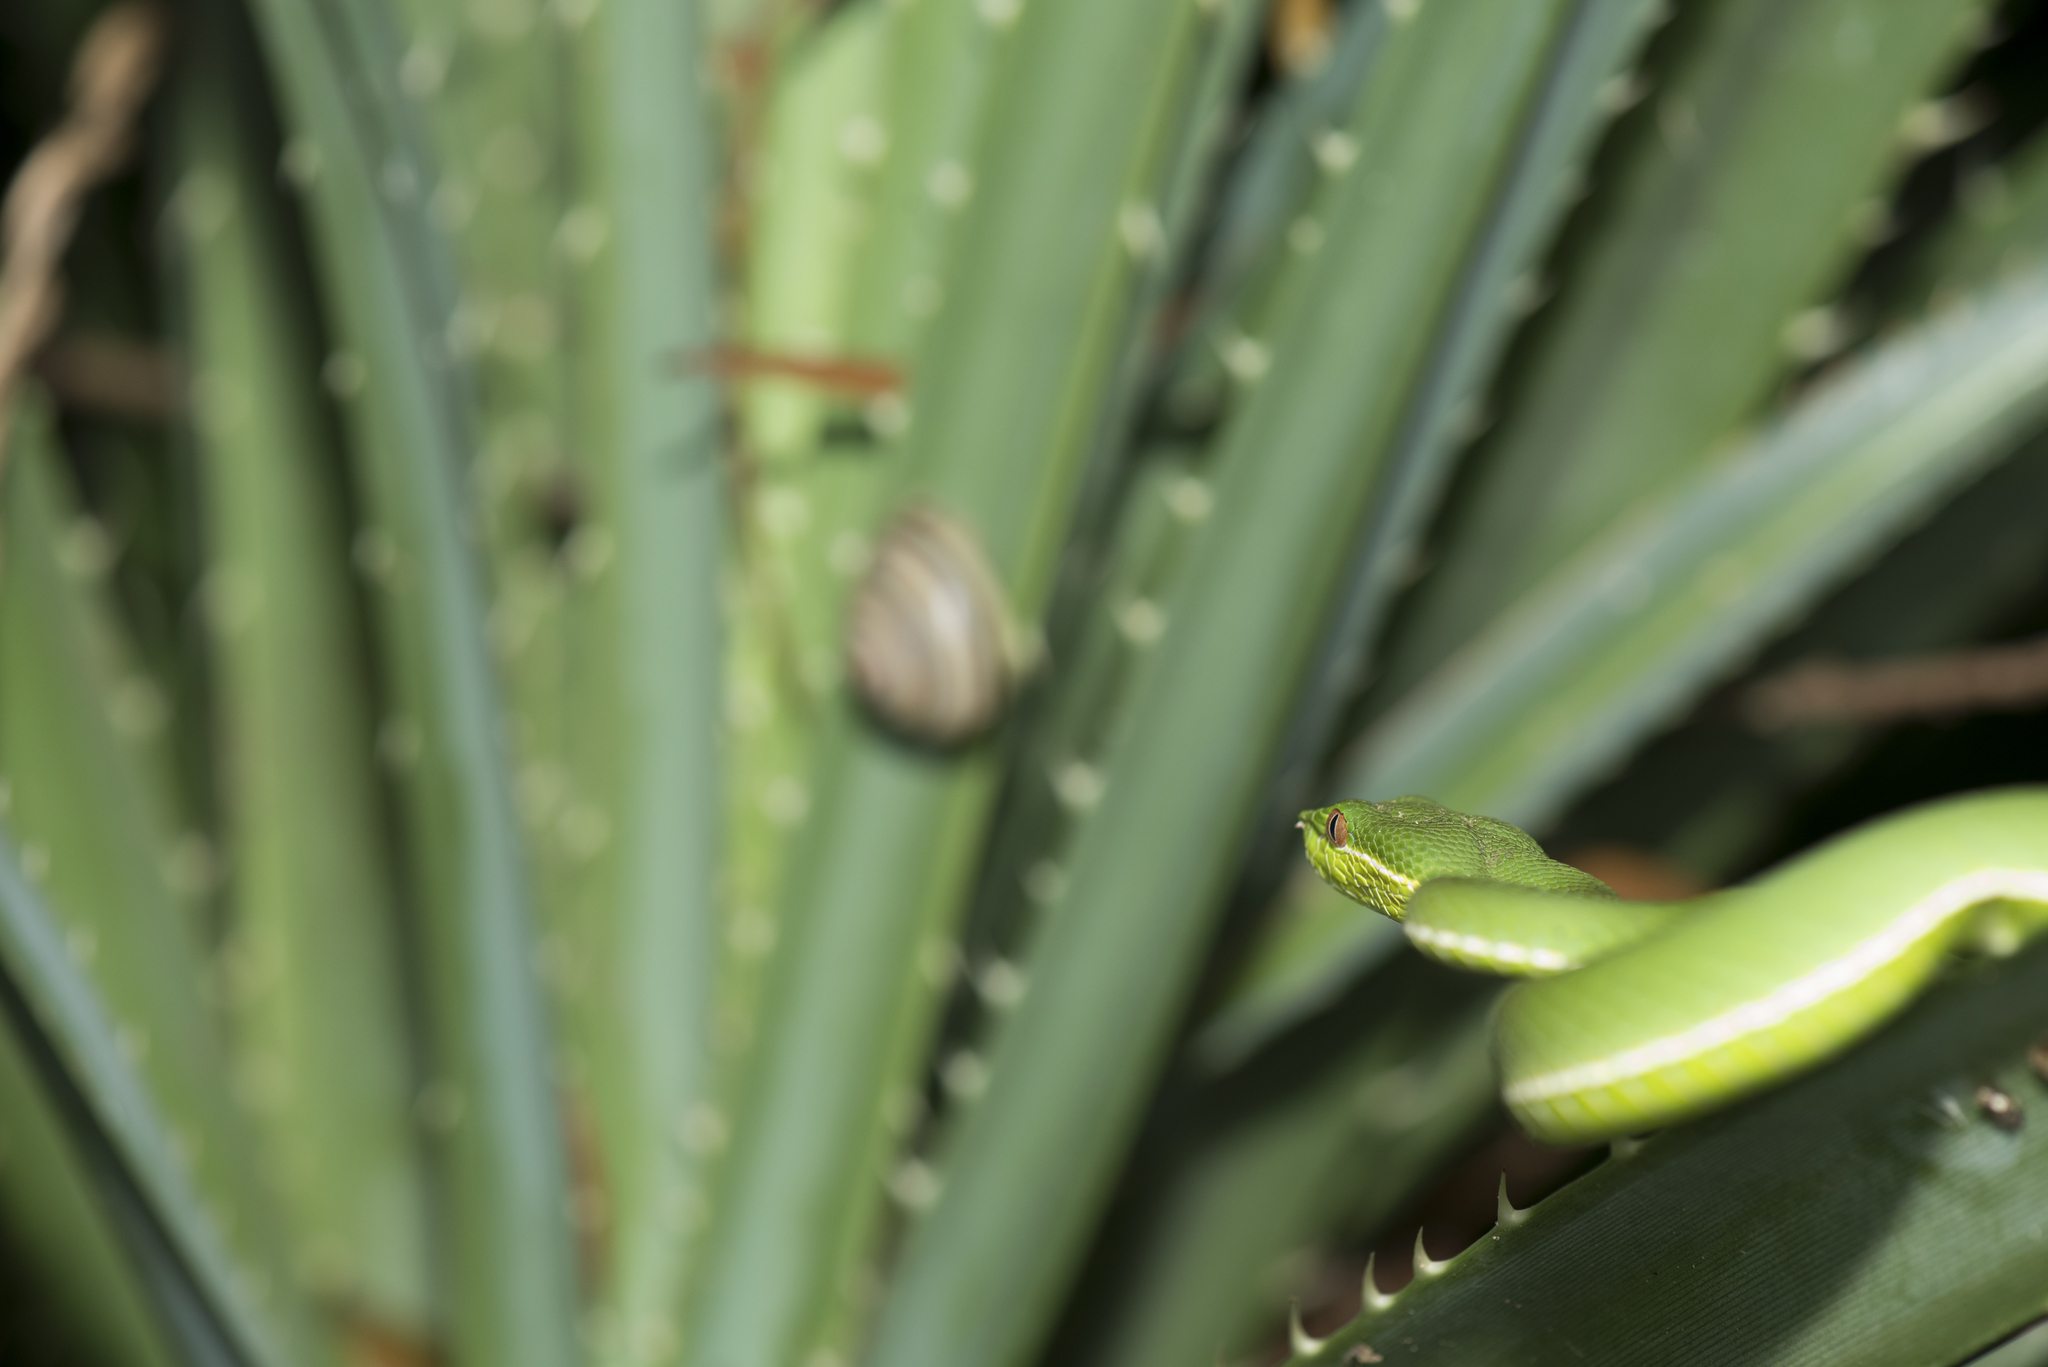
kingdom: Animalia
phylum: Chordata
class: Squamata
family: Viperidae
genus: Trimeresurus
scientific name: Trimeresurus stejnegeri
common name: Chen’s bamboo pit viper
